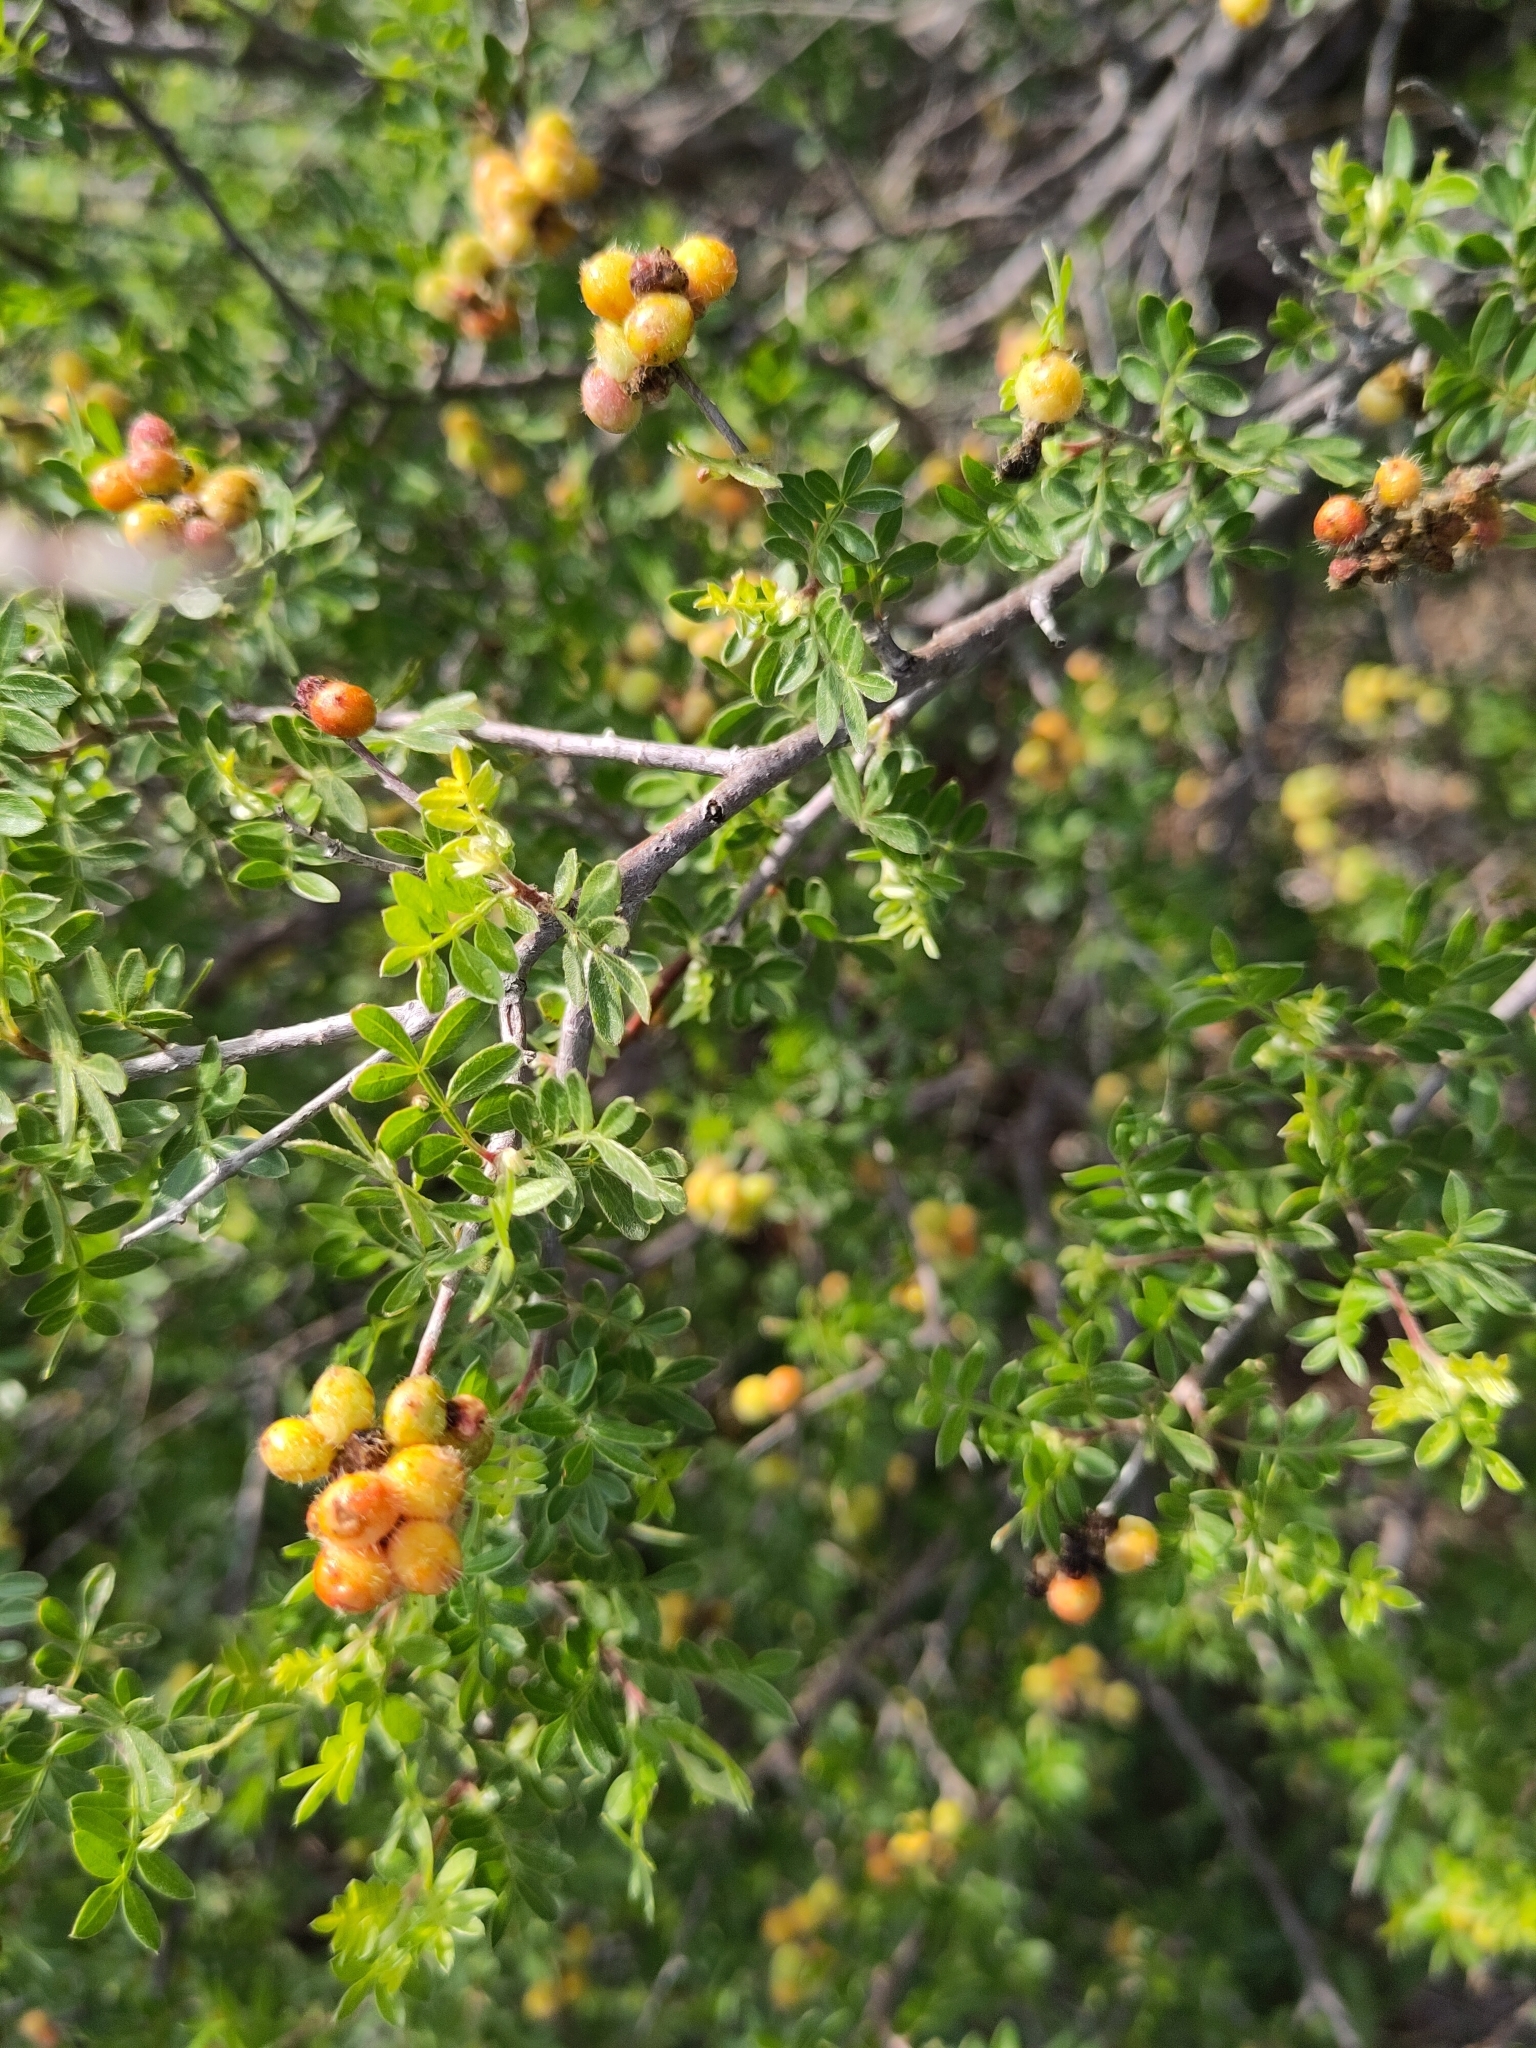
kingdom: Plantae
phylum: Tracheophyta
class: Magnoliopsida
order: Sapindales
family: Anacardiaceae
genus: Rhus
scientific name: Rhus microphylla
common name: Desert sumac
